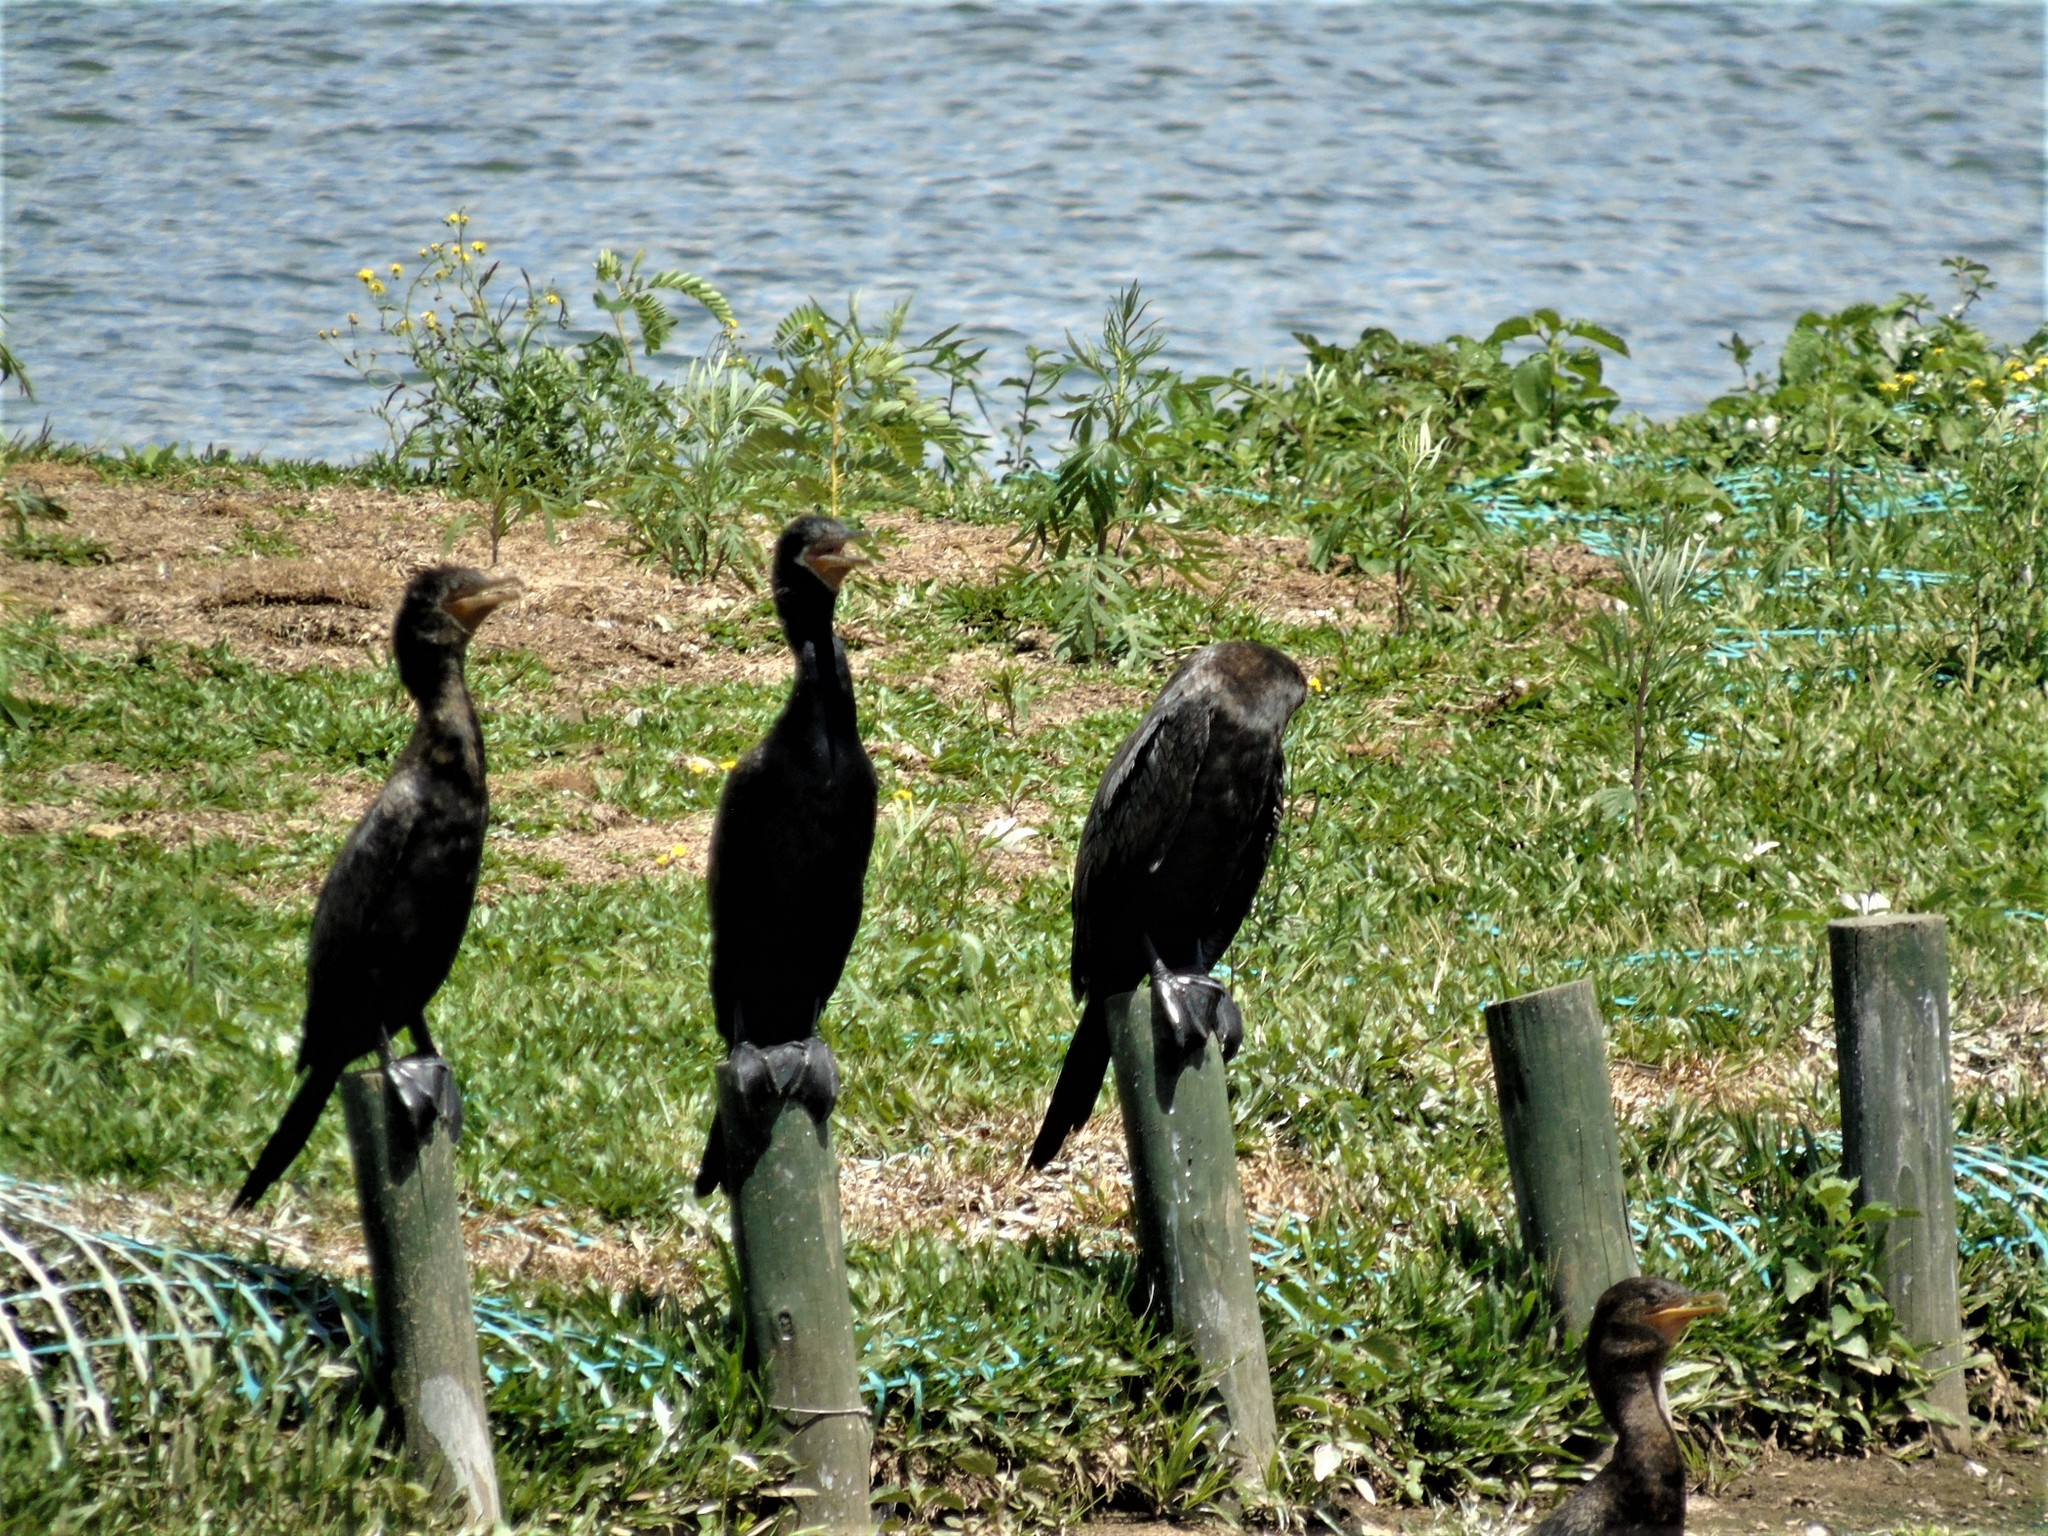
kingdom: Animalia
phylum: Chordata
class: Aves
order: Suliformes
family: Phalacrocoracidae
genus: Phalacrocorax
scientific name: Phalacrocorax brasilianus
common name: Neotropic cormorant
